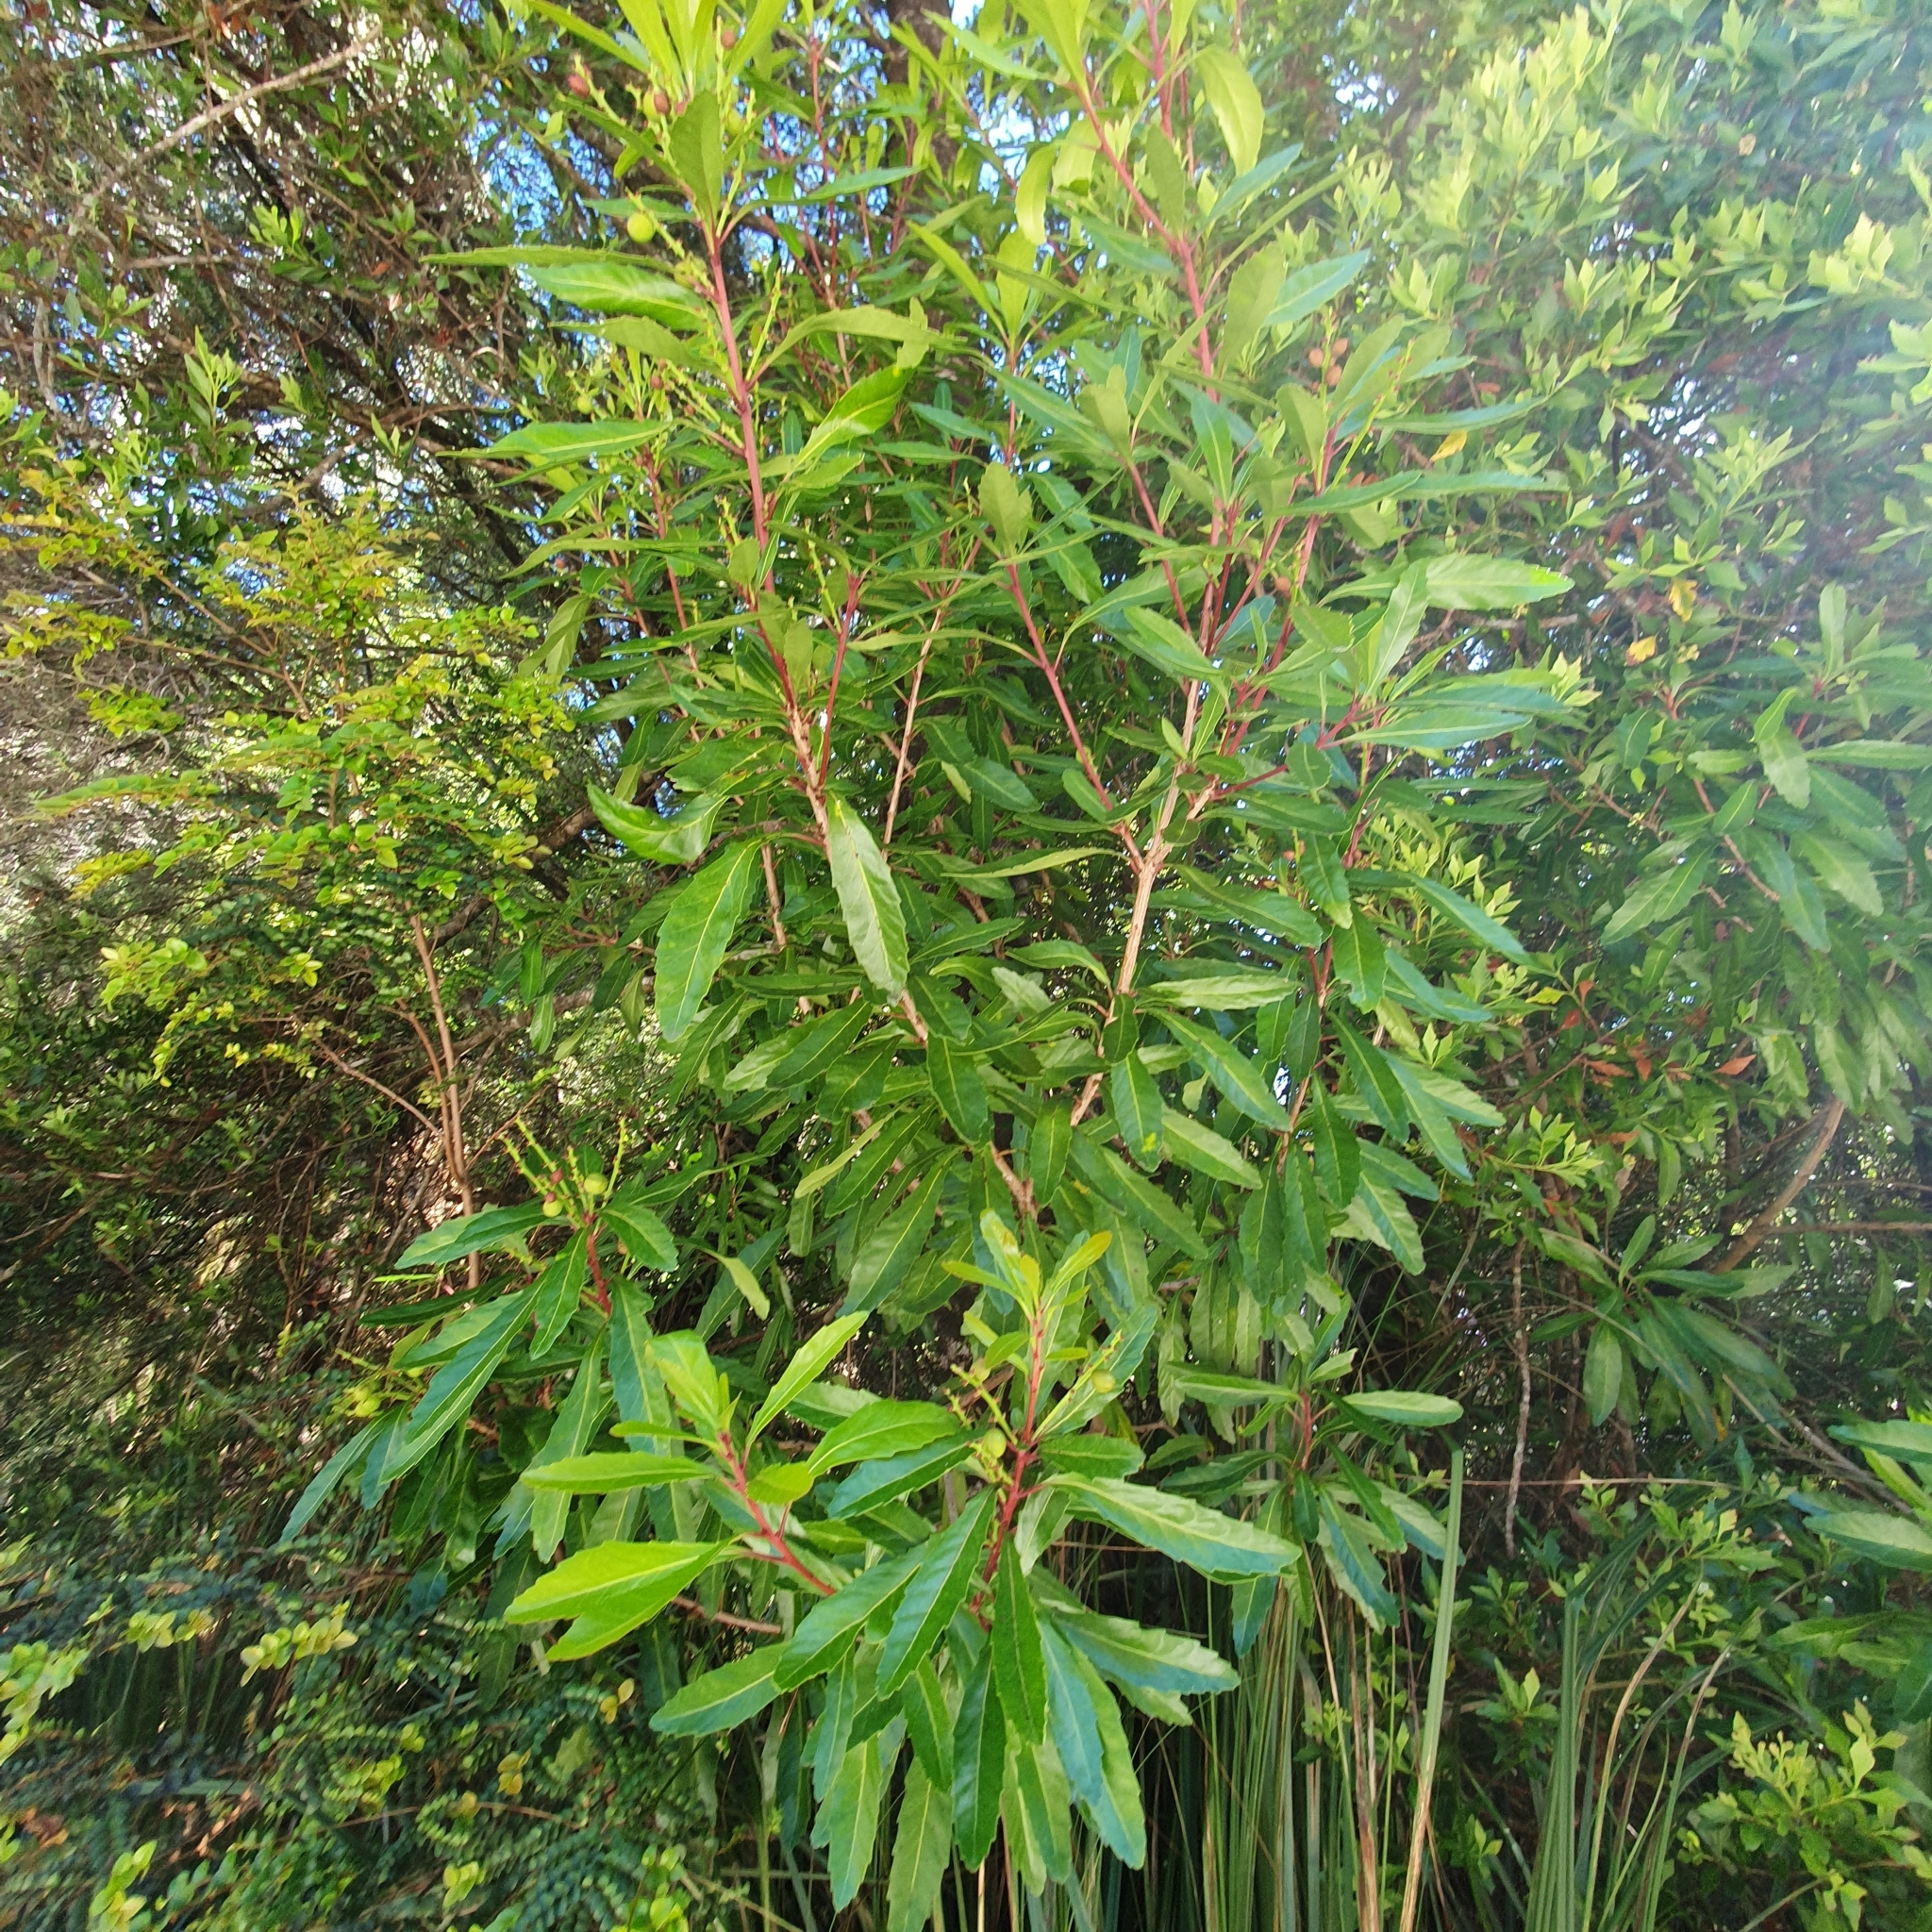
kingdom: Plantae
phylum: Tracheophyta
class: Magnoliopsida
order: Proteales
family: Proteaceae
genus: Cenarrhenes
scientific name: Cenarrhenes nitida
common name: Native plum
